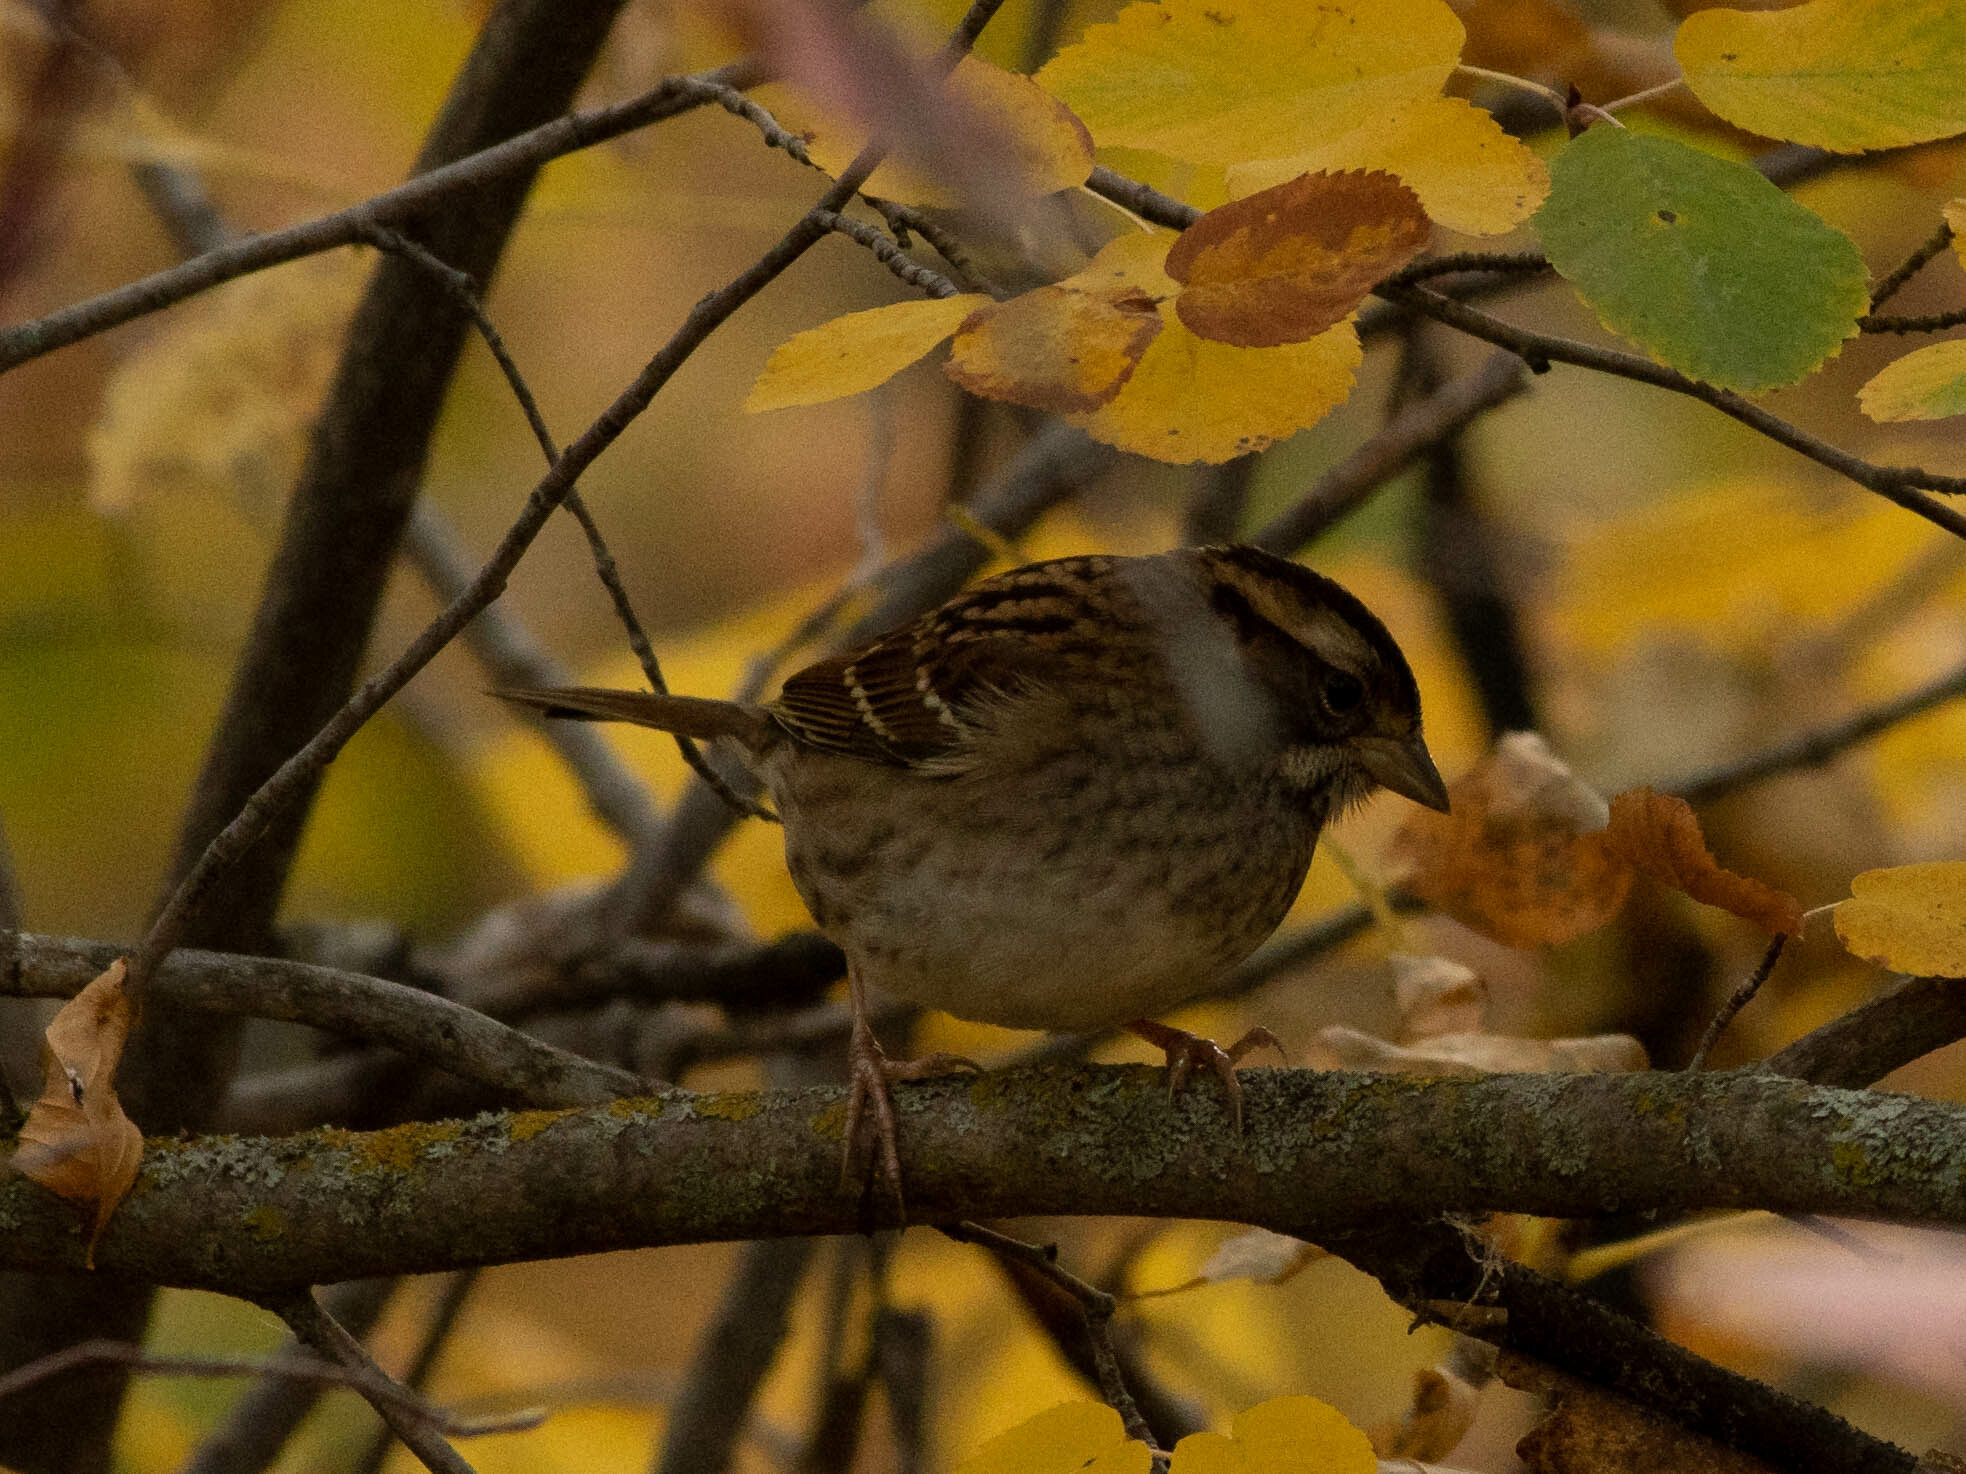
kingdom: Animalia
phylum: Chordata
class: Aves
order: Passeriformes
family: Passerellidae
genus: Zonotrichia
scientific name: Zonotrichia albicollis
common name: White-throated sparrow
